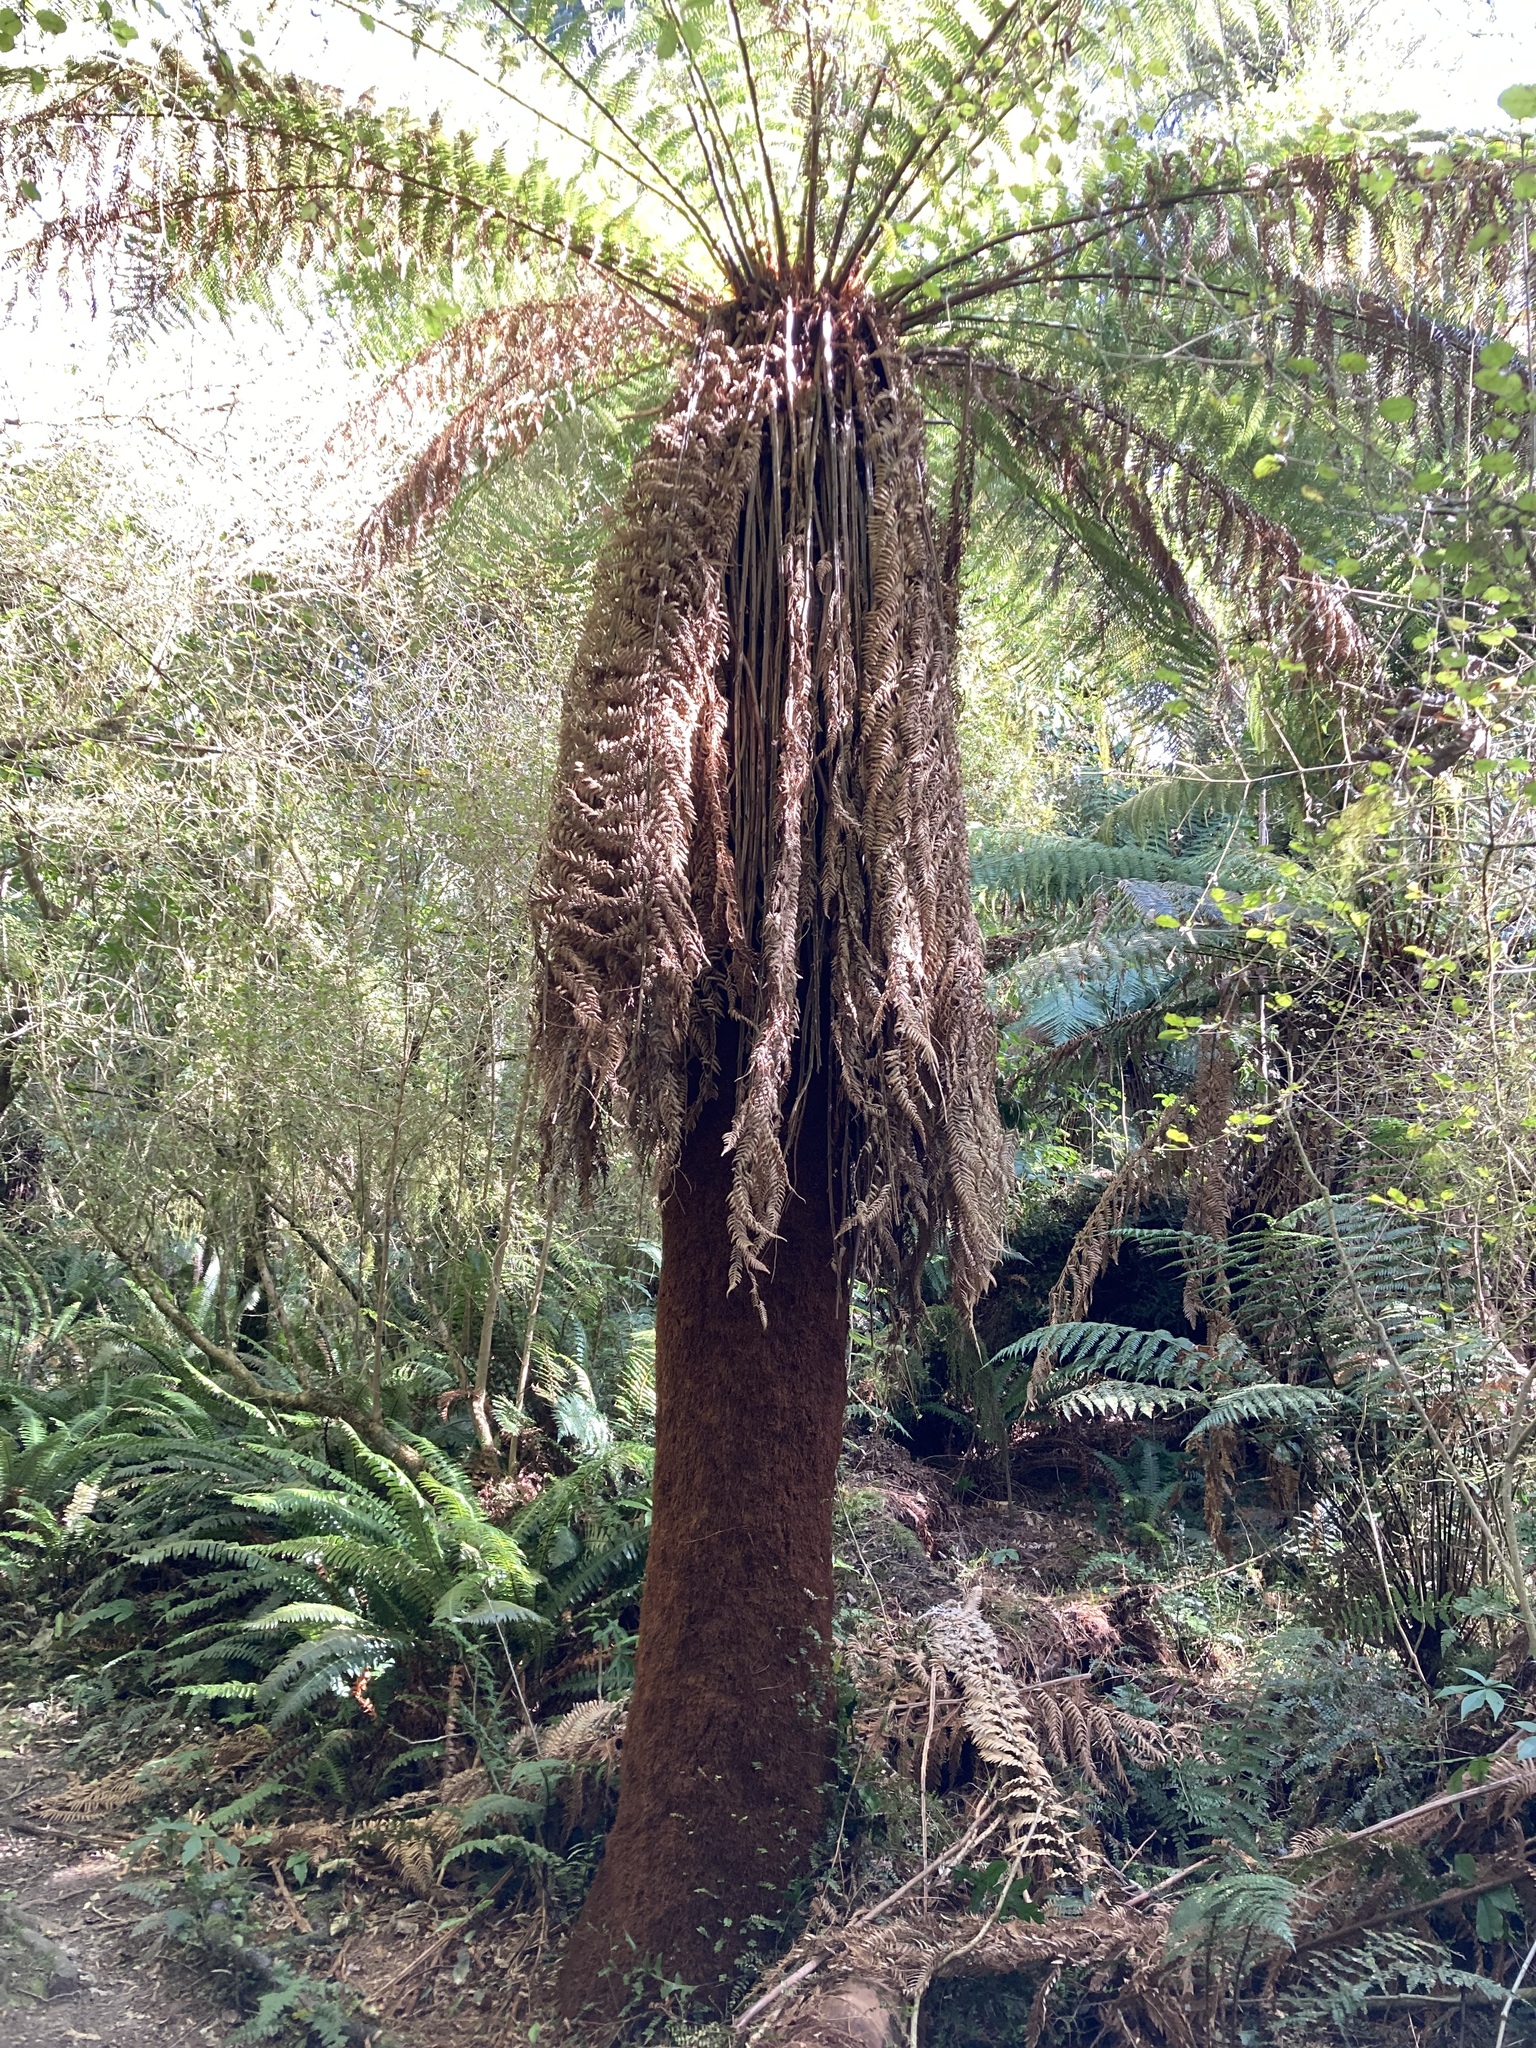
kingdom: Plantae
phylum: Tracheophyta
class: Polypodiopsida
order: Cyatheales
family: Dicksoniaceae
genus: Dicksonia
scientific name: Dicksonia fibrosa
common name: Golden tree fern
